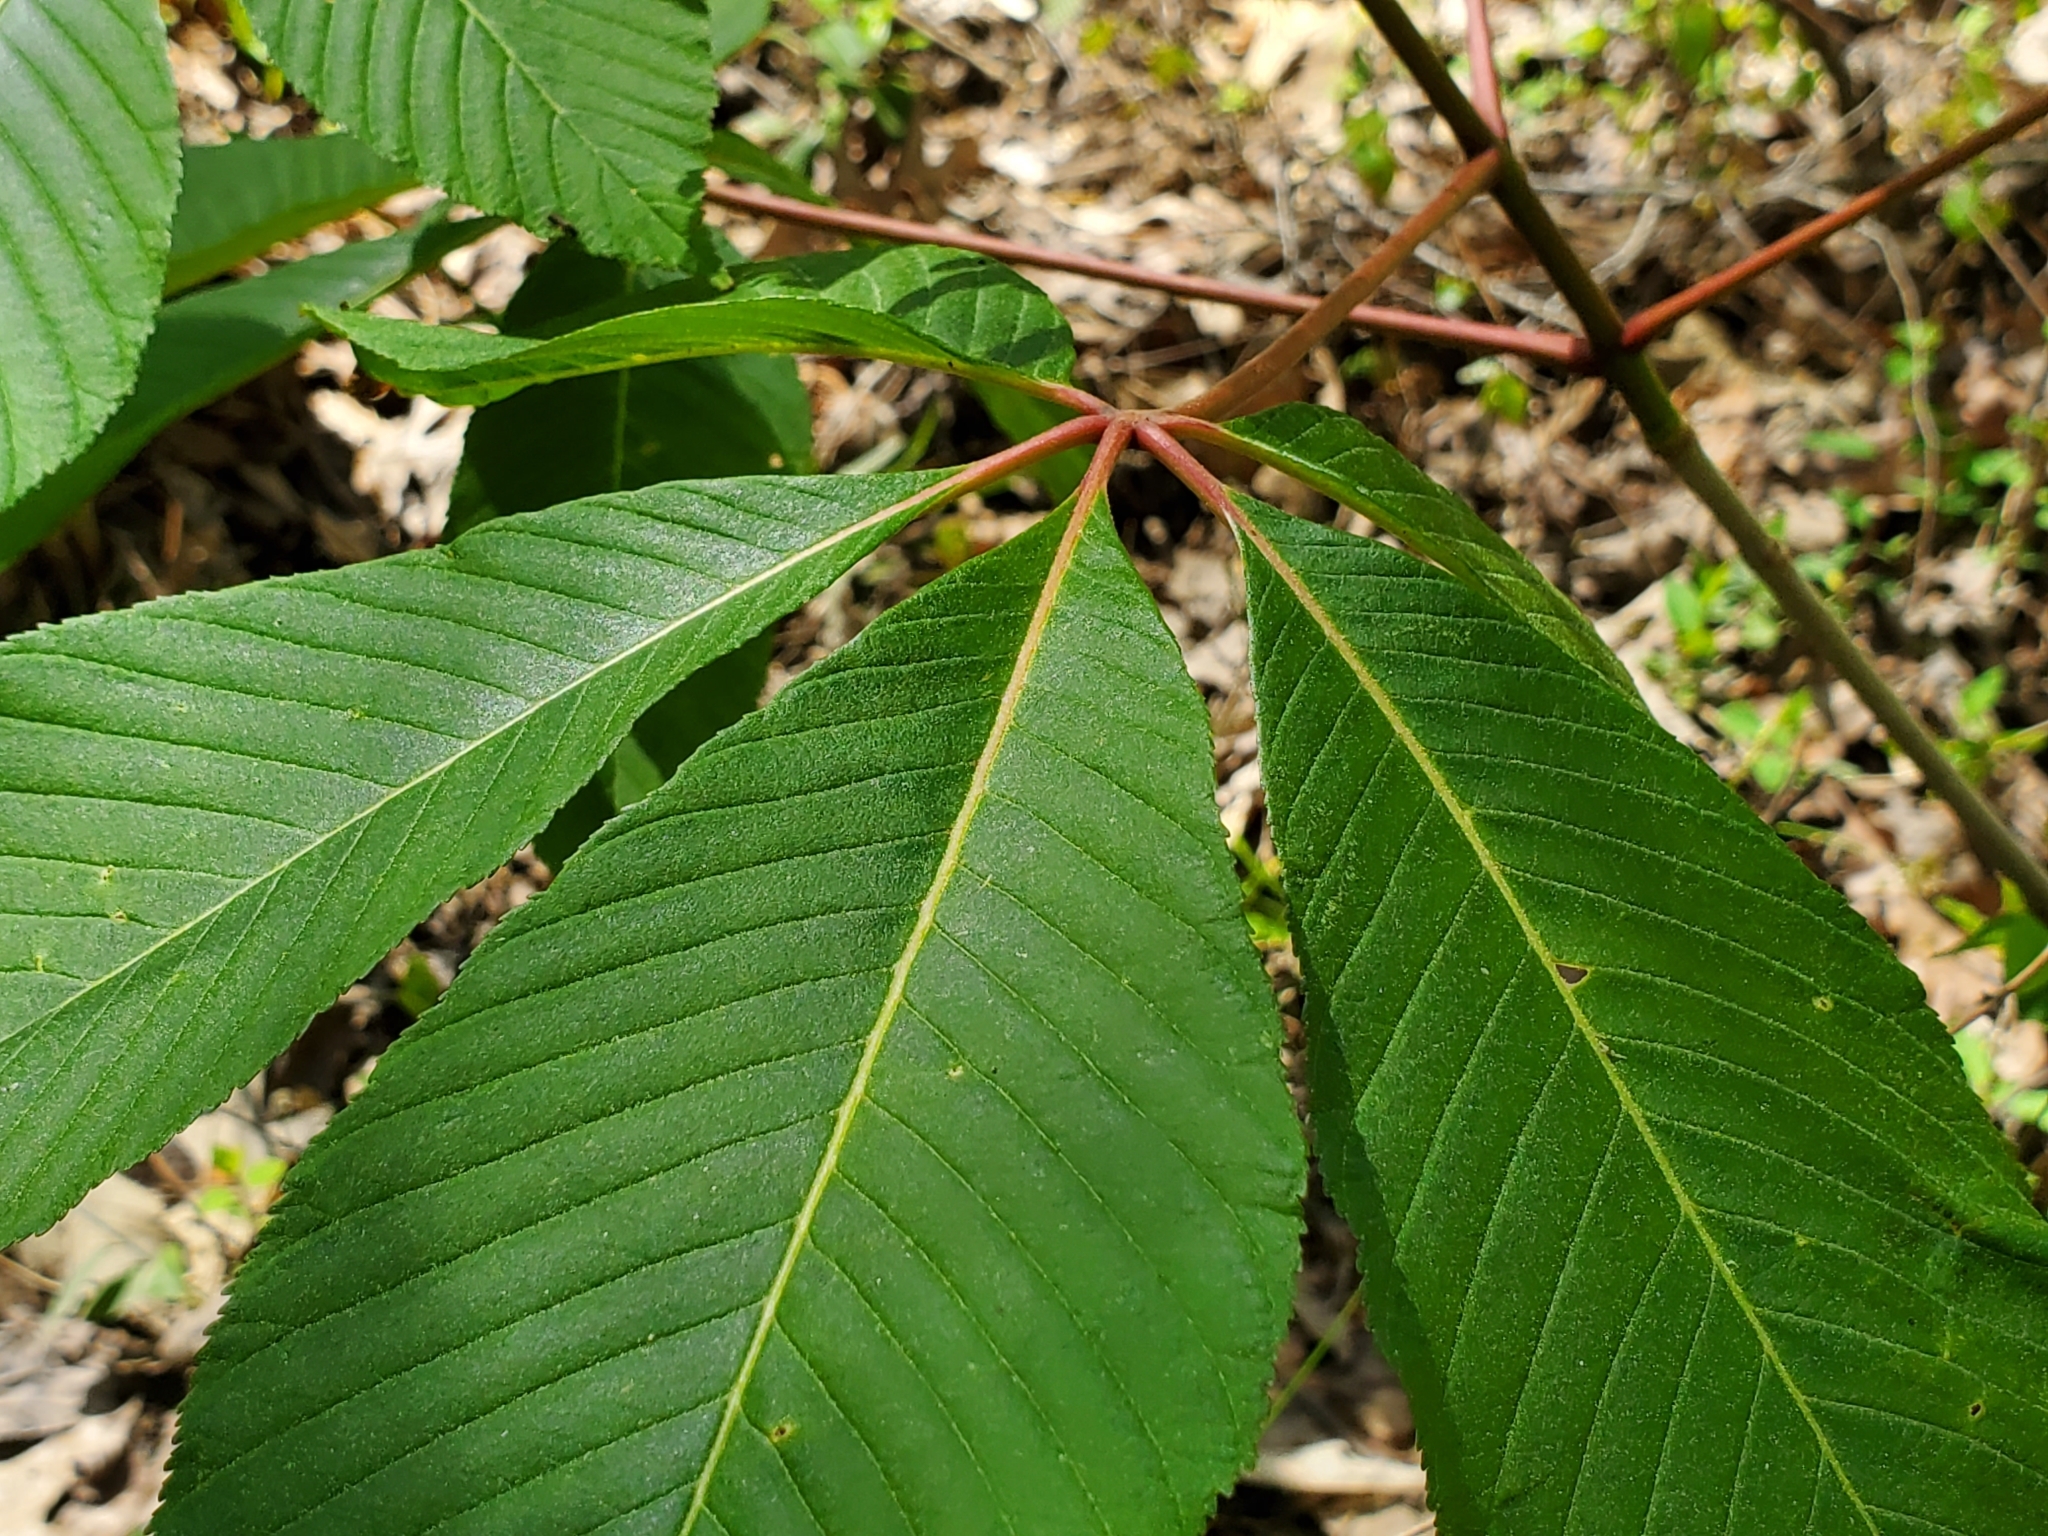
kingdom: Plantae
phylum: Tracheophyta
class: Magnoliopsida
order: Sapindales
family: Sapindaceae
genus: Aesculus
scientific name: Aesculus pavia
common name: Red buckeye
